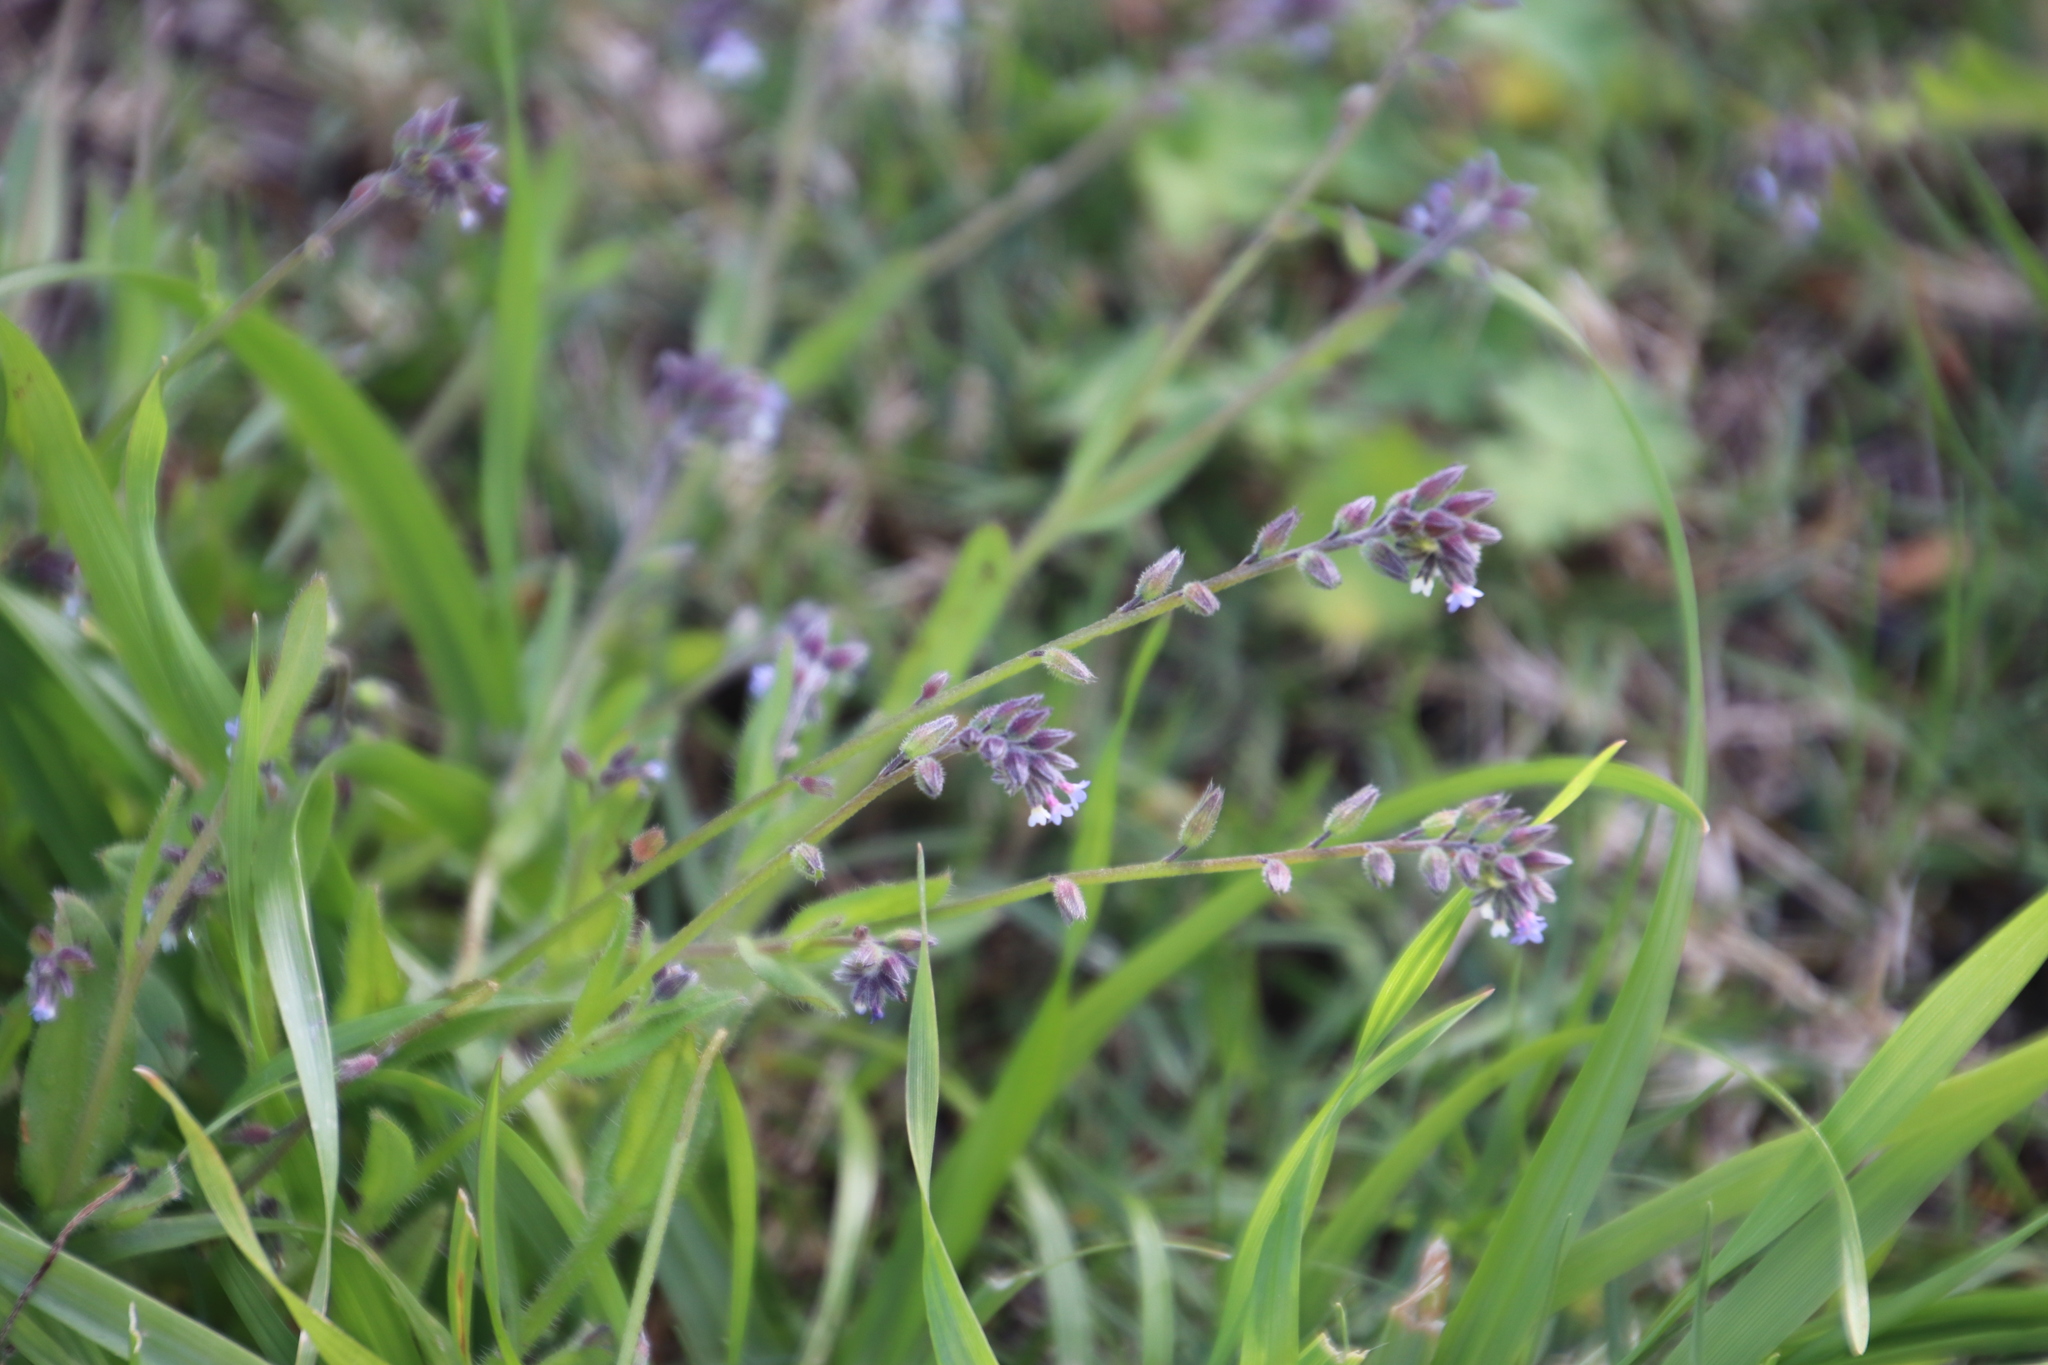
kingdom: Plantae
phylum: Tracheophyta
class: Magnoliopsida
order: Boraginales
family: Boraginaceae
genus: Myosotis
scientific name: Myosotis discolor
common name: Changing forget-me-not
